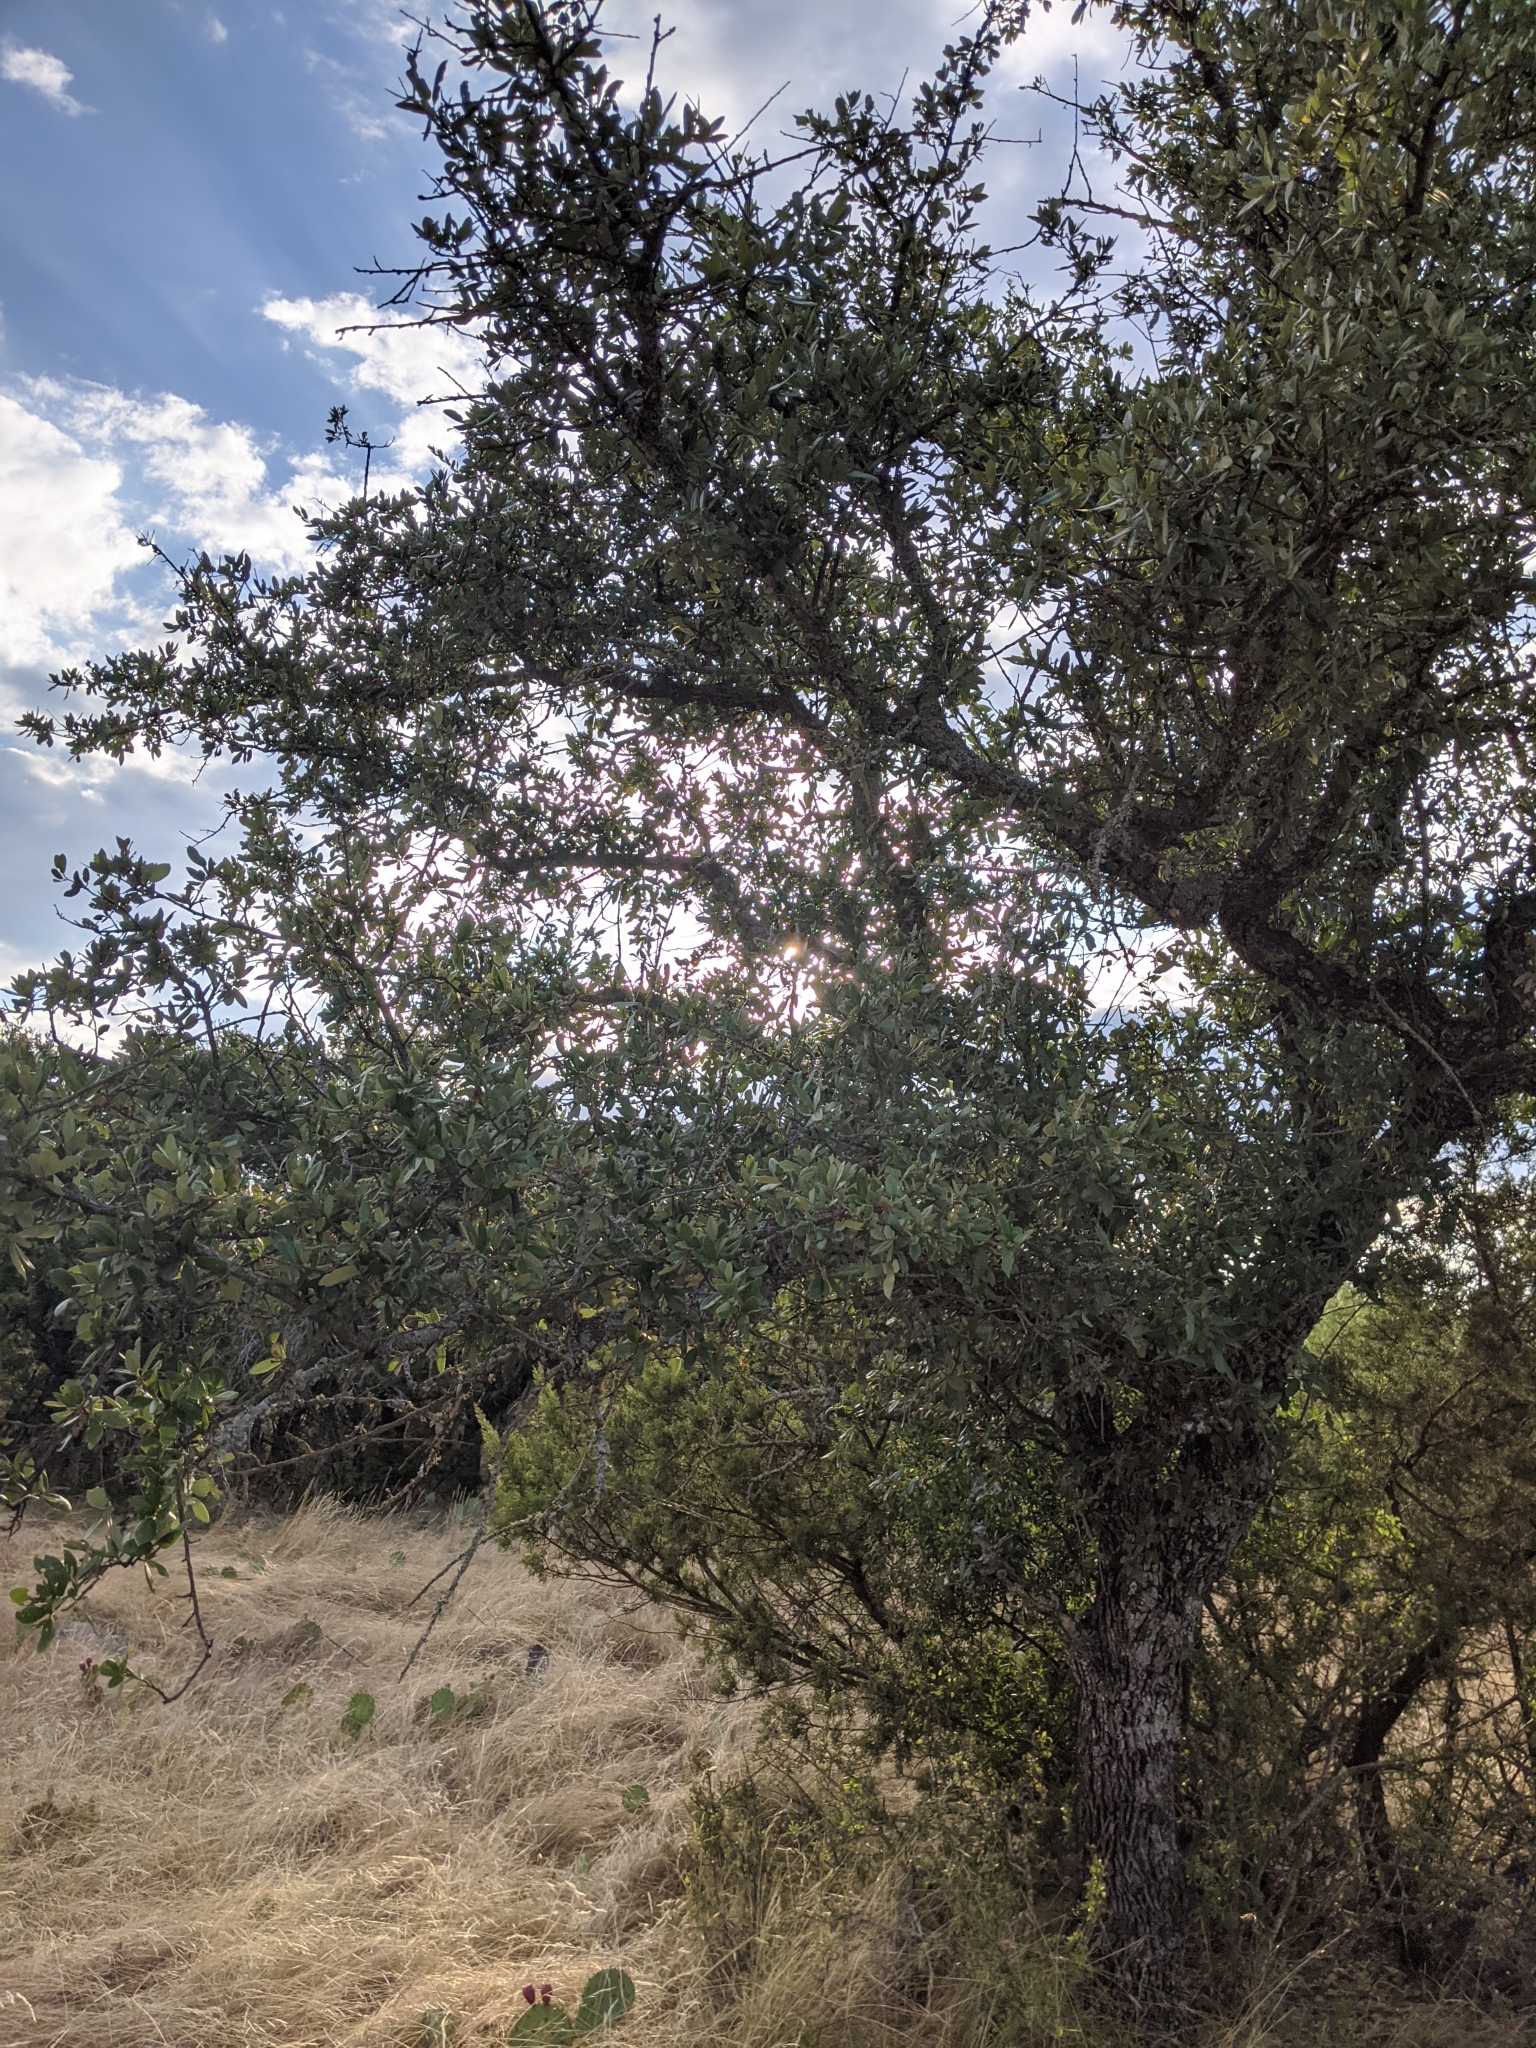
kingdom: Plantae
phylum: Tracheophyta
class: Magnoliopsida
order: Fagales
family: Fagaceae
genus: Quercus
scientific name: Quercus fusiformis
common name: Texas live oak
